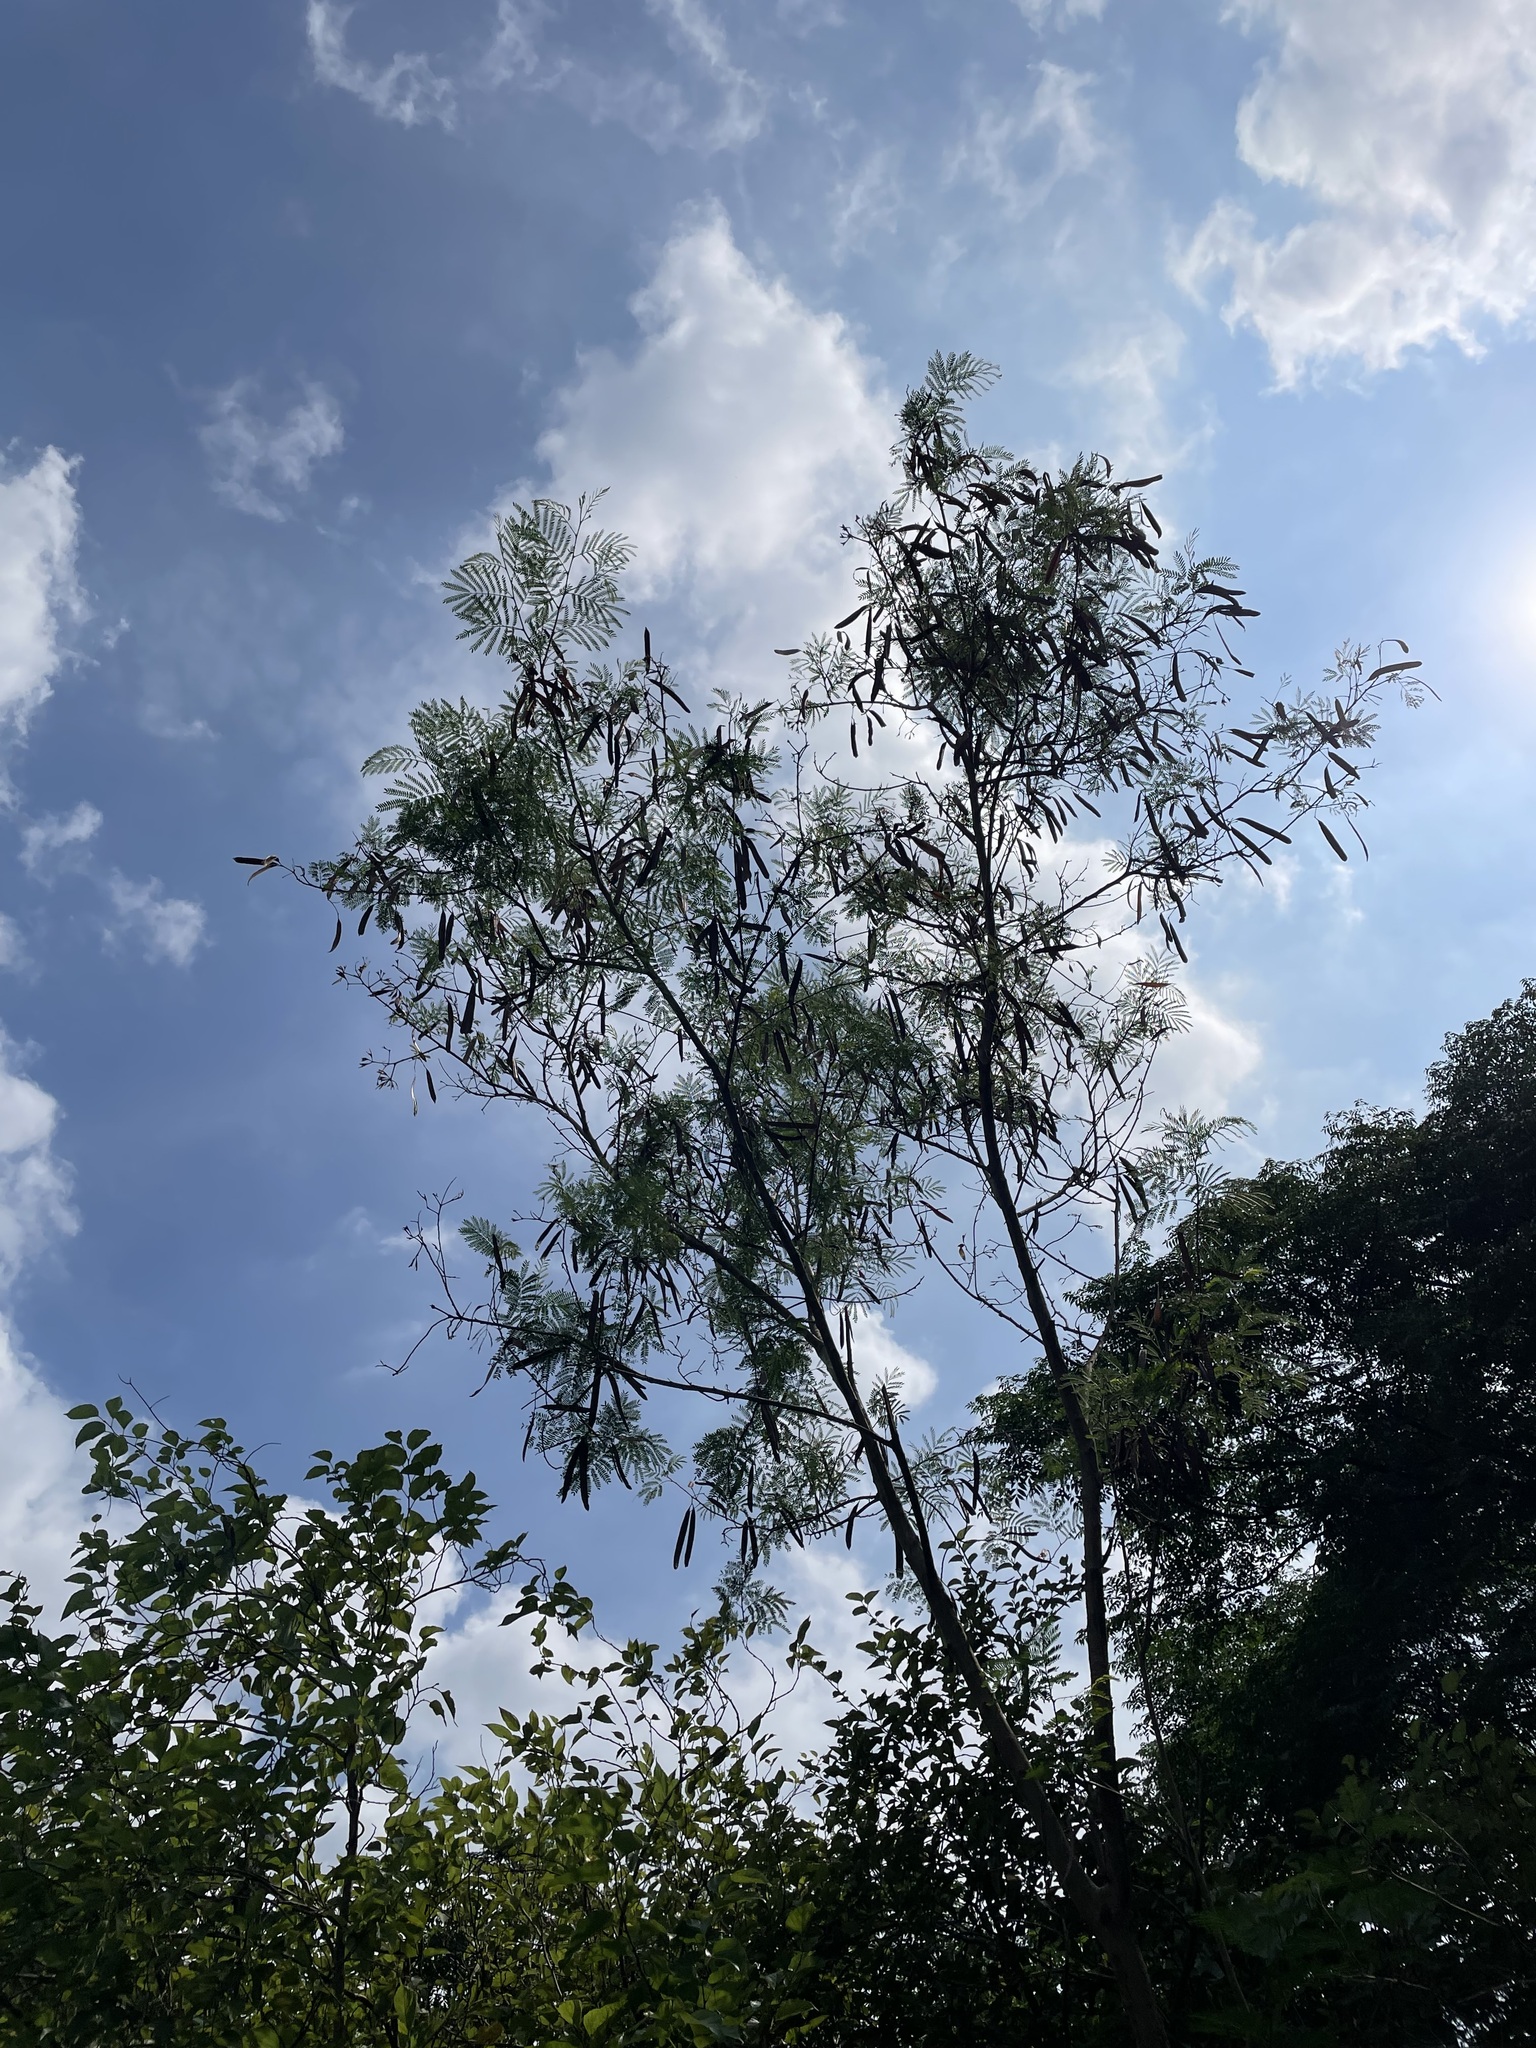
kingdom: Plantae
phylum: Tracheophyta
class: Magnoliopsida
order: Fabales
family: Fabaceae
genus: Leucaena
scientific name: Leucaena leucocephala
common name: White leadtree
